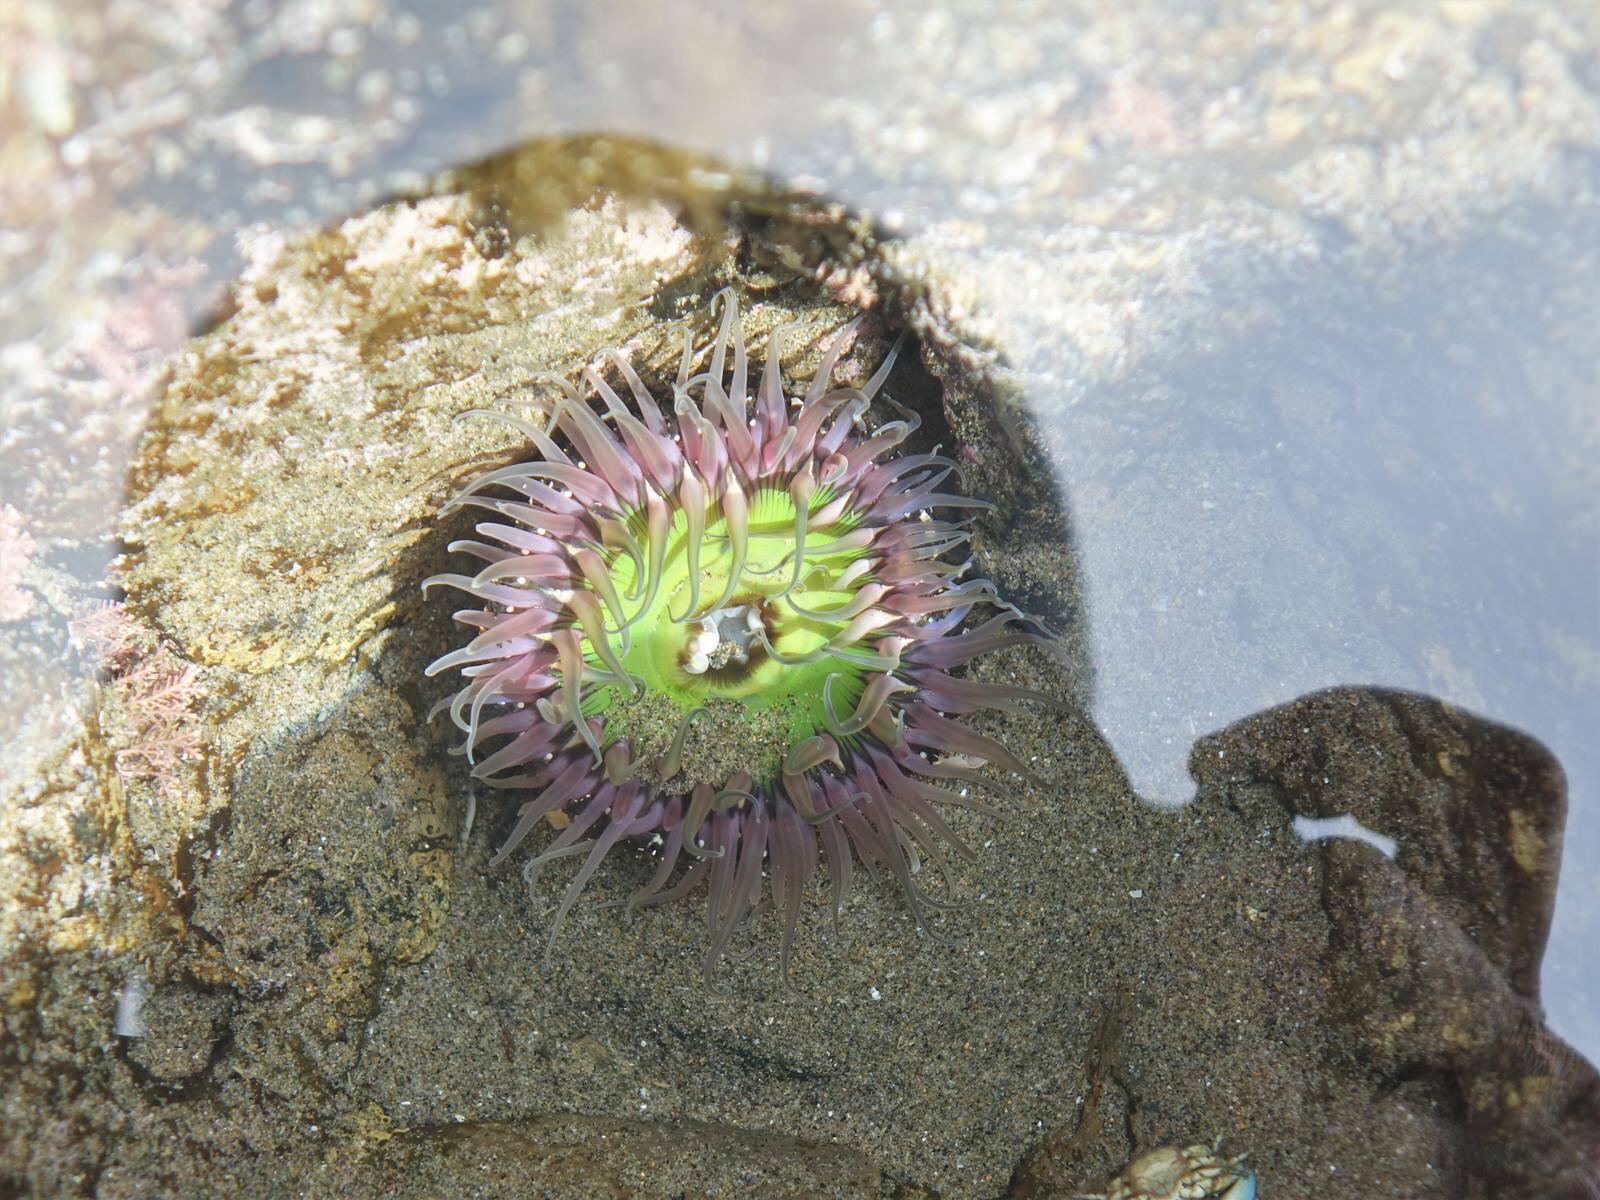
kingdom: Animalia
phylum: Cnidaria
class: Anthozoa
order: Actiniaria
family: Actiniidae
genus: Oulactis
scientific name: Oulactis magna
